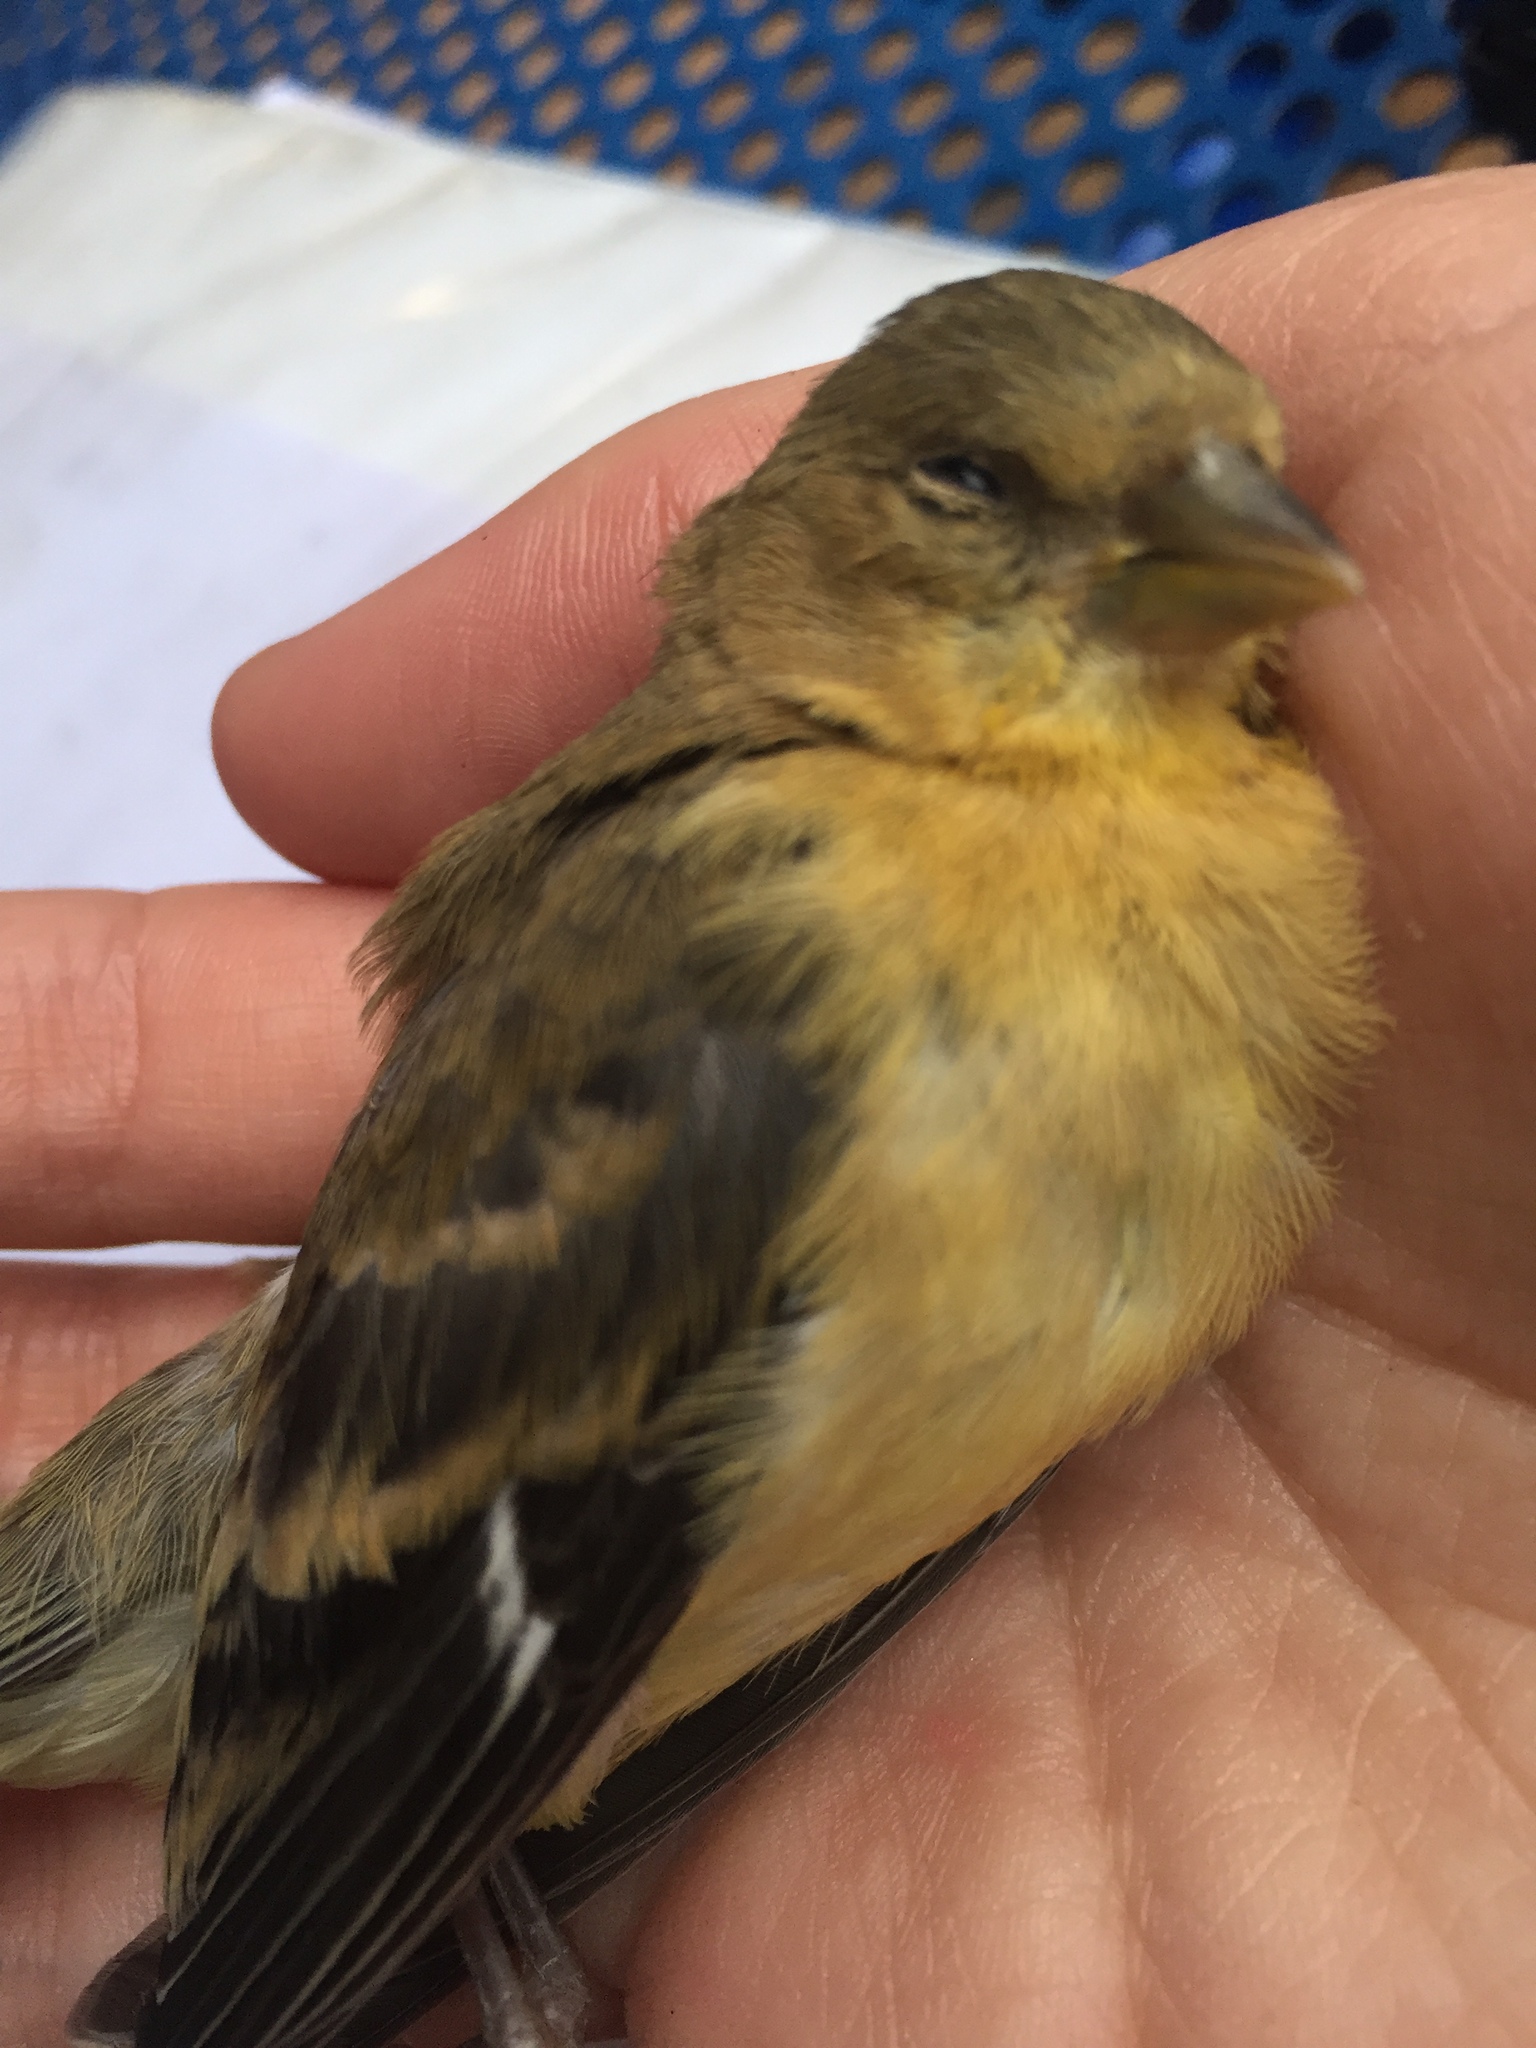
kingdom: Animalia
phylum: Chordata
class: Aves
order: Passeriformes
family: Fringillidae
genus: Spinus
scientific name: Spinus psaltria
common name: Lesser goldfinch
